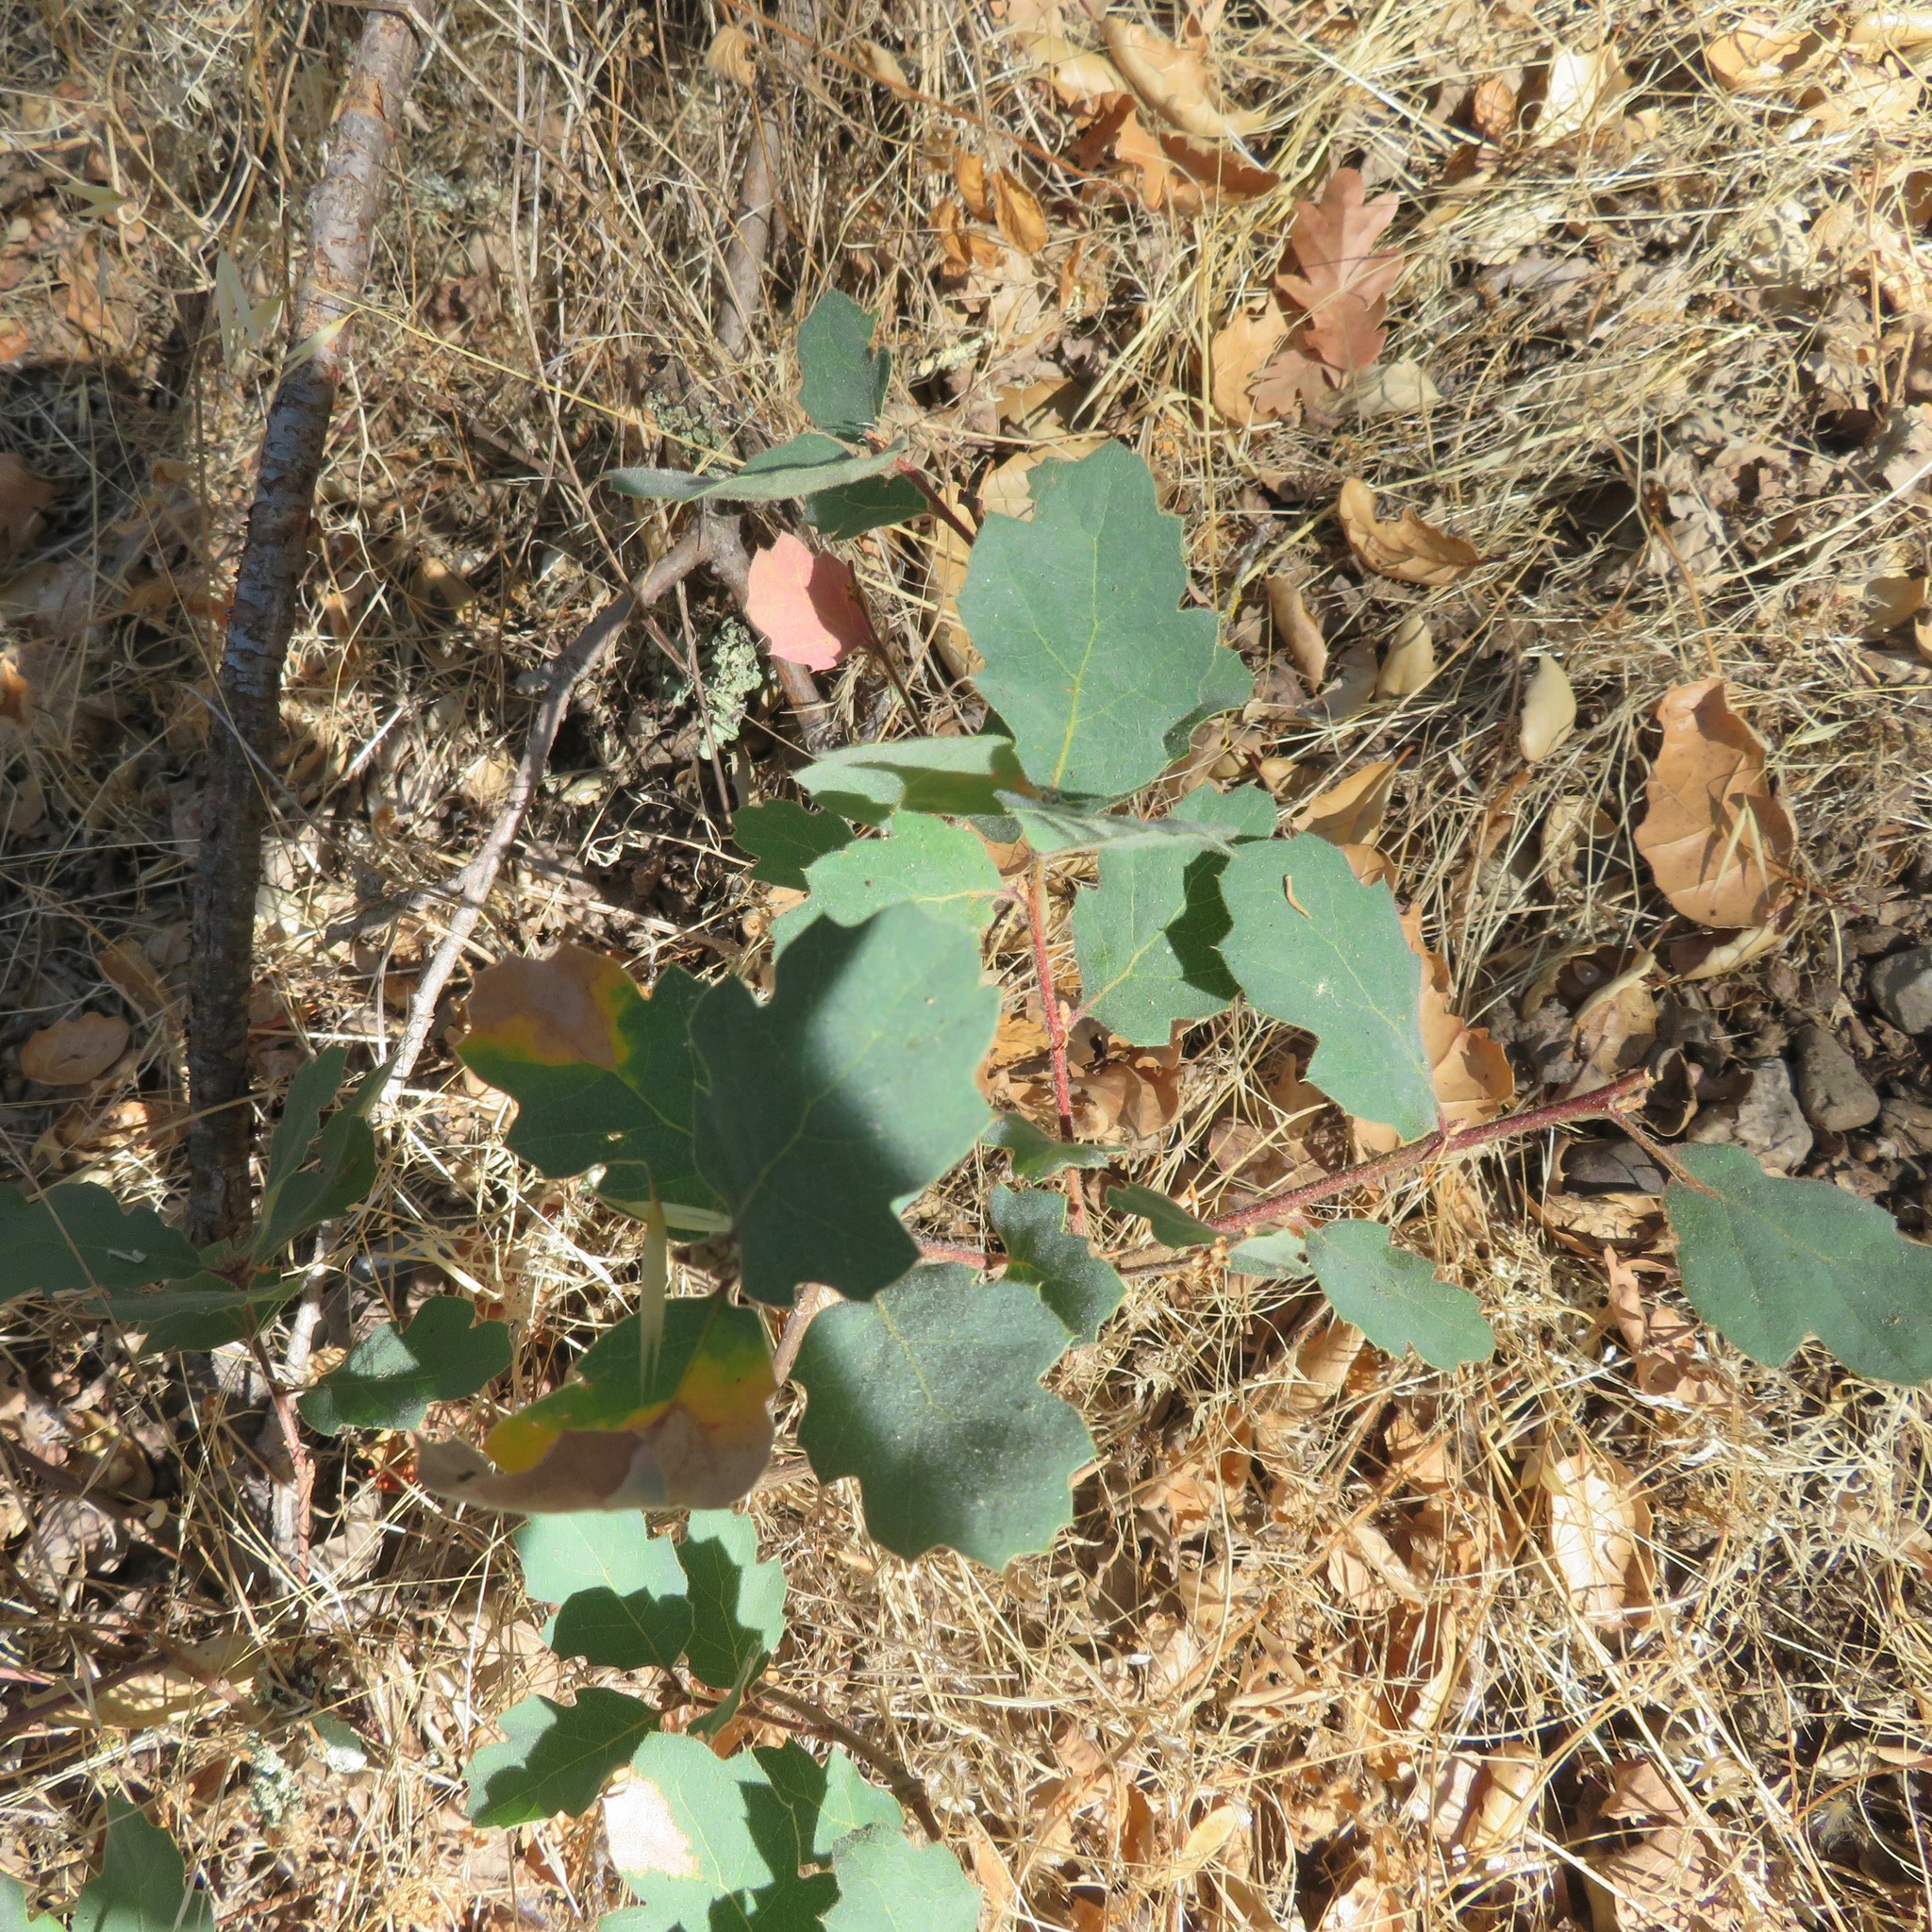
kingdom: Plantae
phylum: Tracheophyta
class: Magnoliopsida
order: Fagales
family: Fagaceae
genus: Quercus
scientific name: Quercus douglasii
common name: Blue oak
